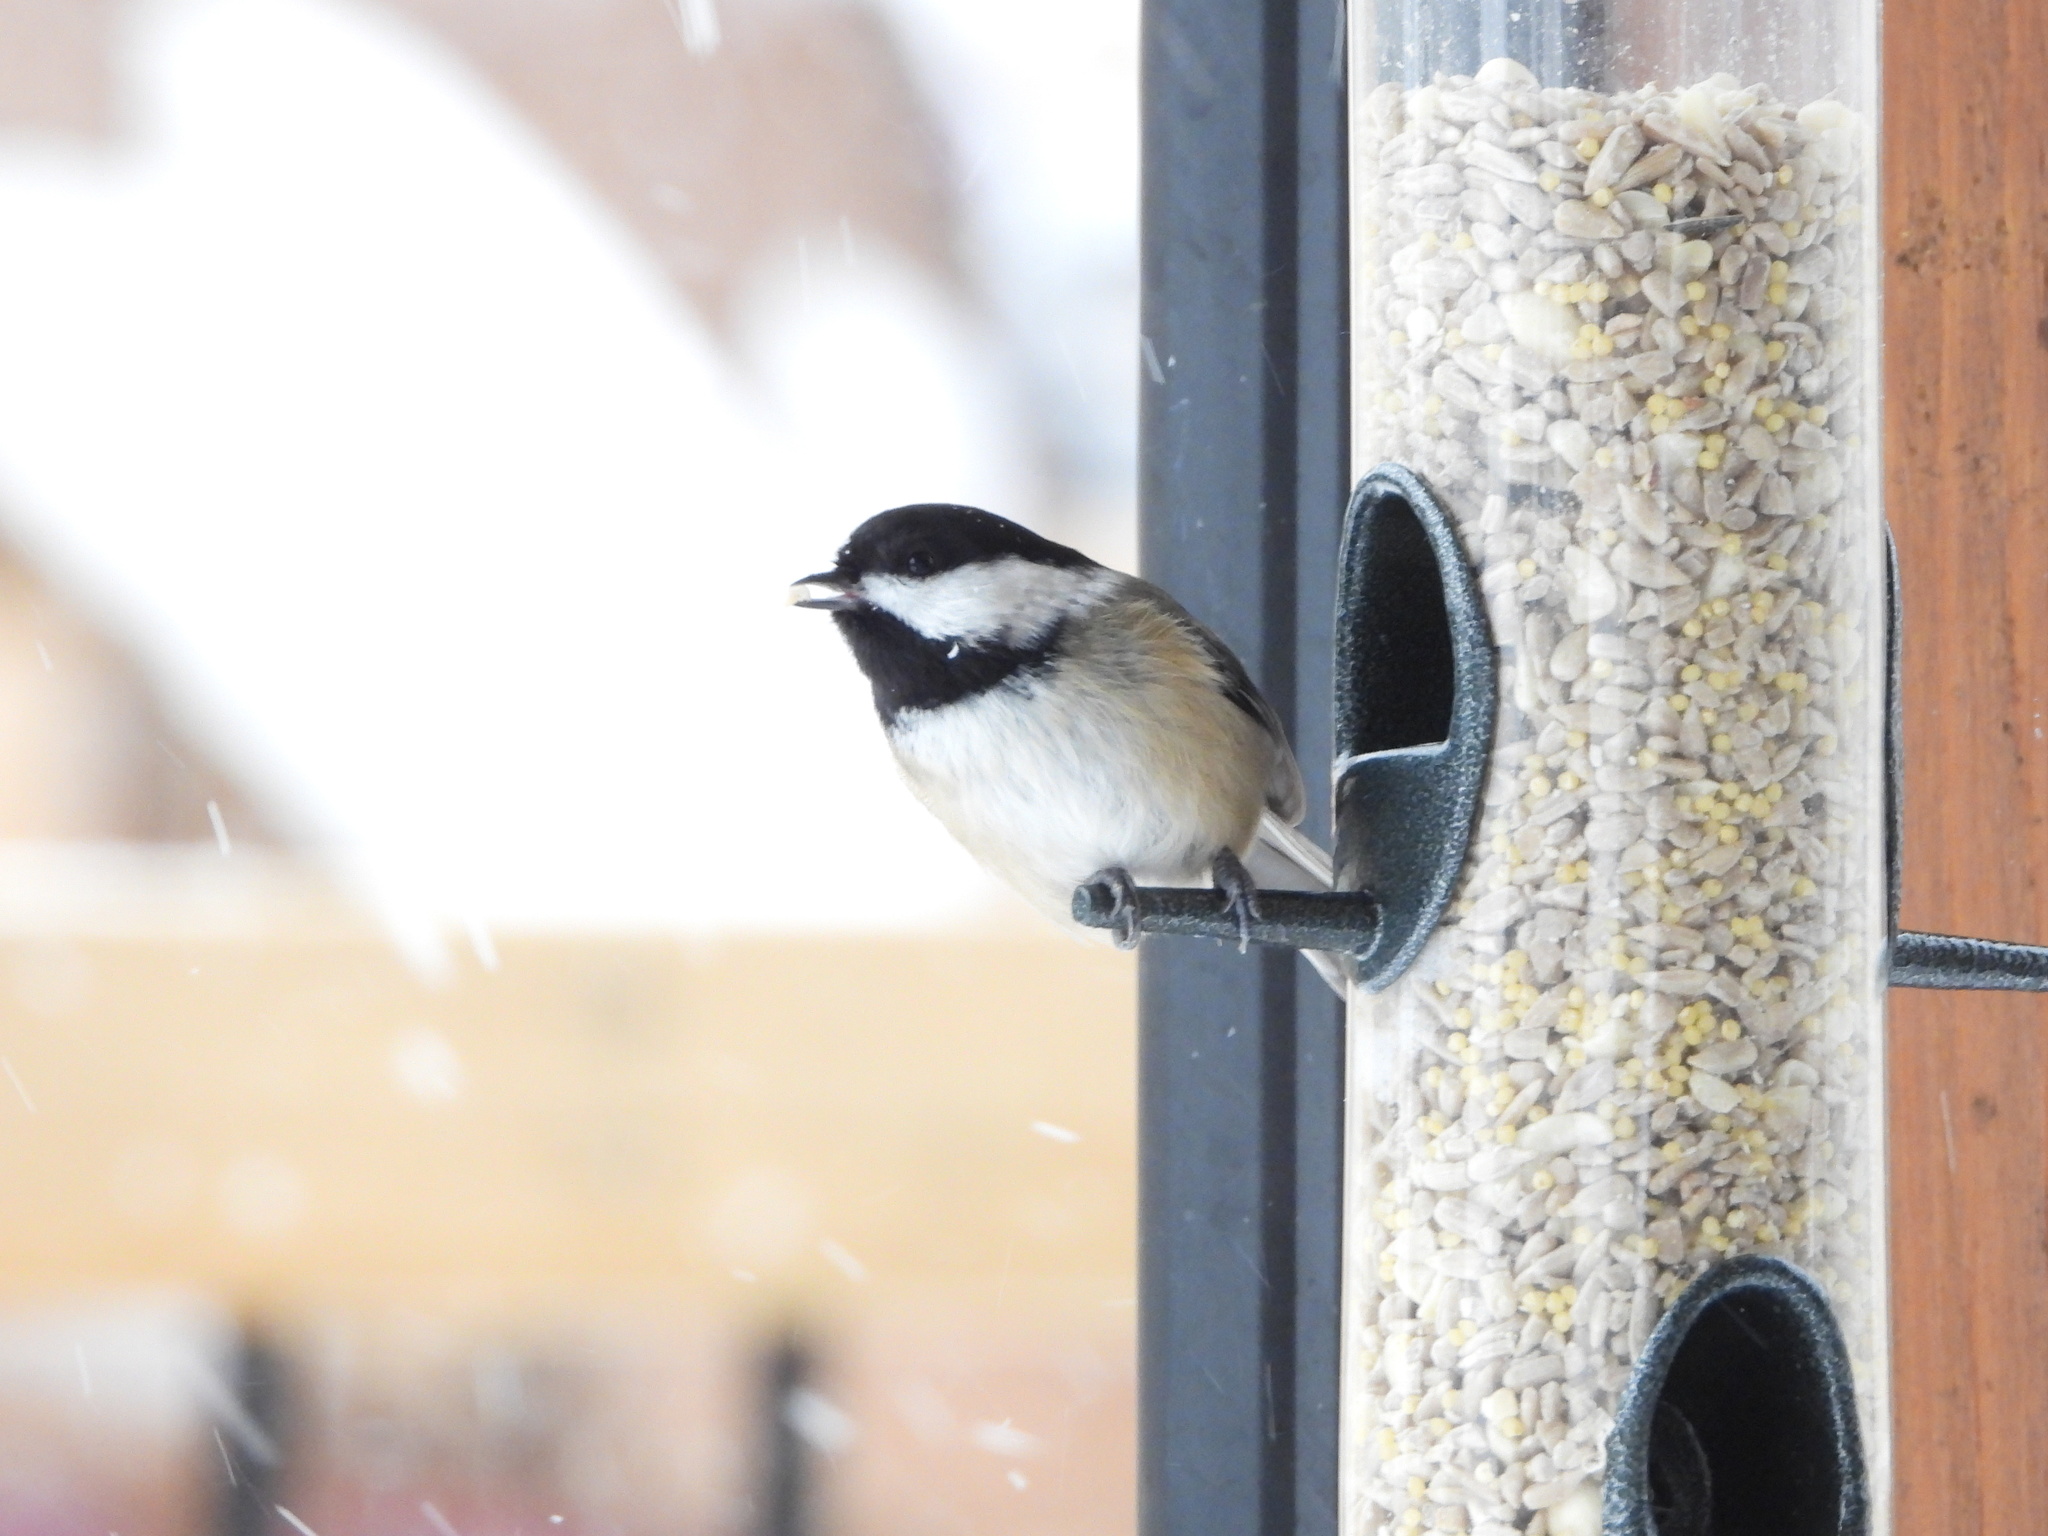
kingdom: Animalia
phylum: Chordata
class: Aves
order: Passeriformes
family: Paridae
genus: Poecile
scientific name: Poecile atricapillus
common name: Black-capped chickadee
